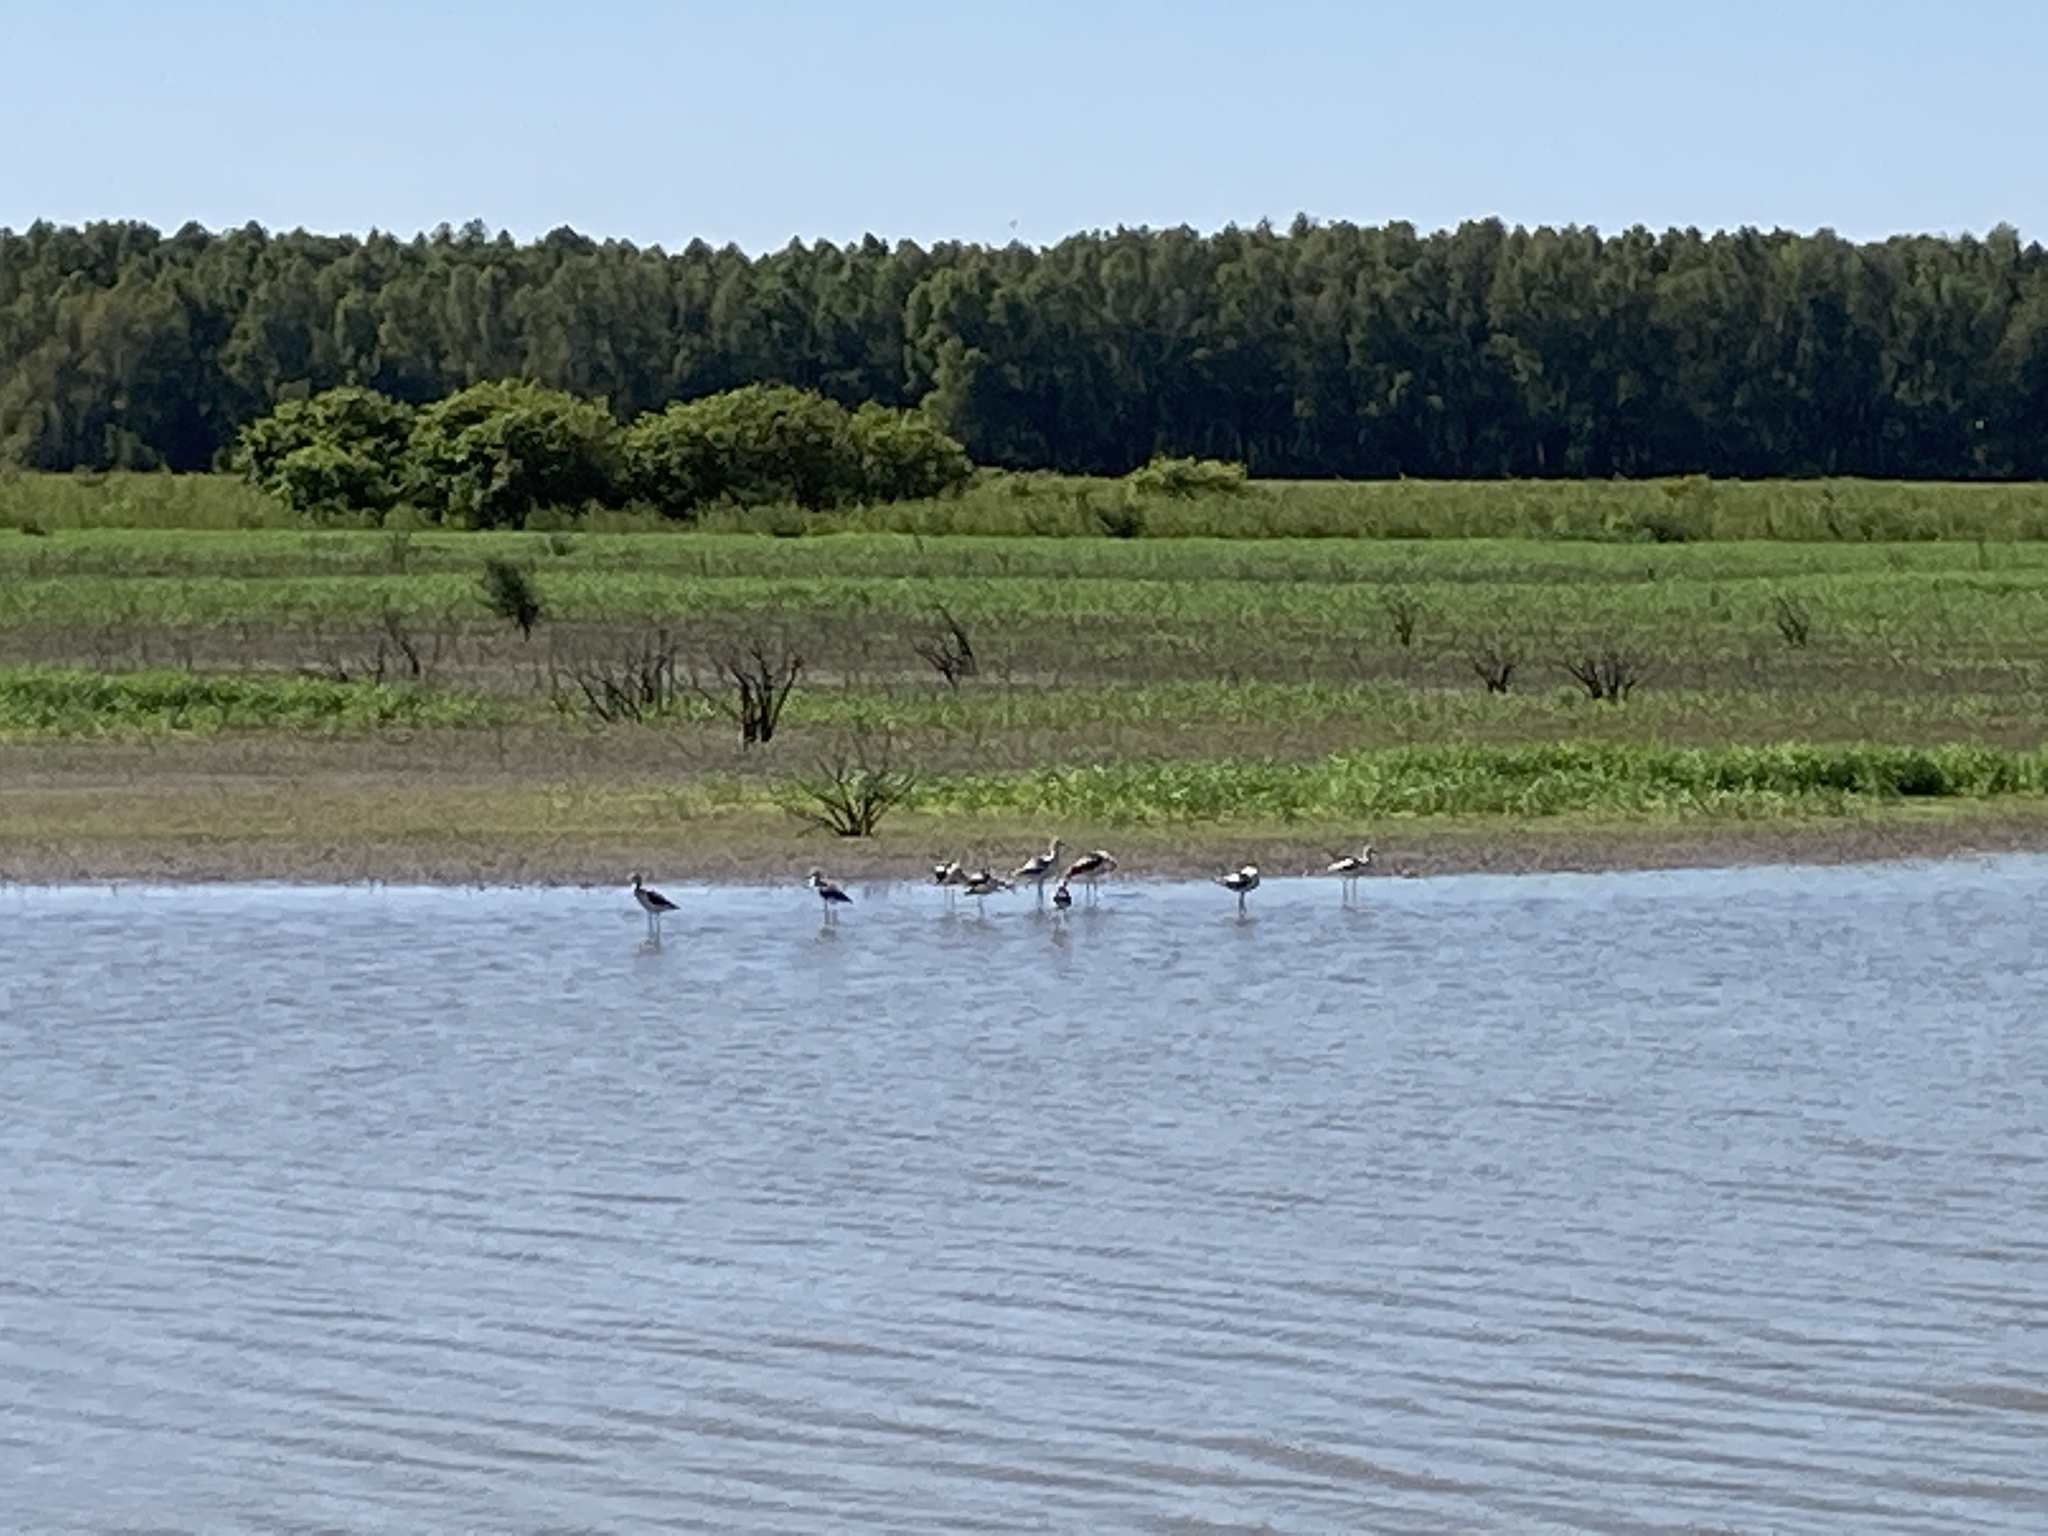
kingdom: Animalia
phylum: Chordata
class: Aves
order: Charadriiformes
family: Recurvirostridae
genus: Recurvirostra
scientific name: Recurvirostra americana
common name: American avocet
